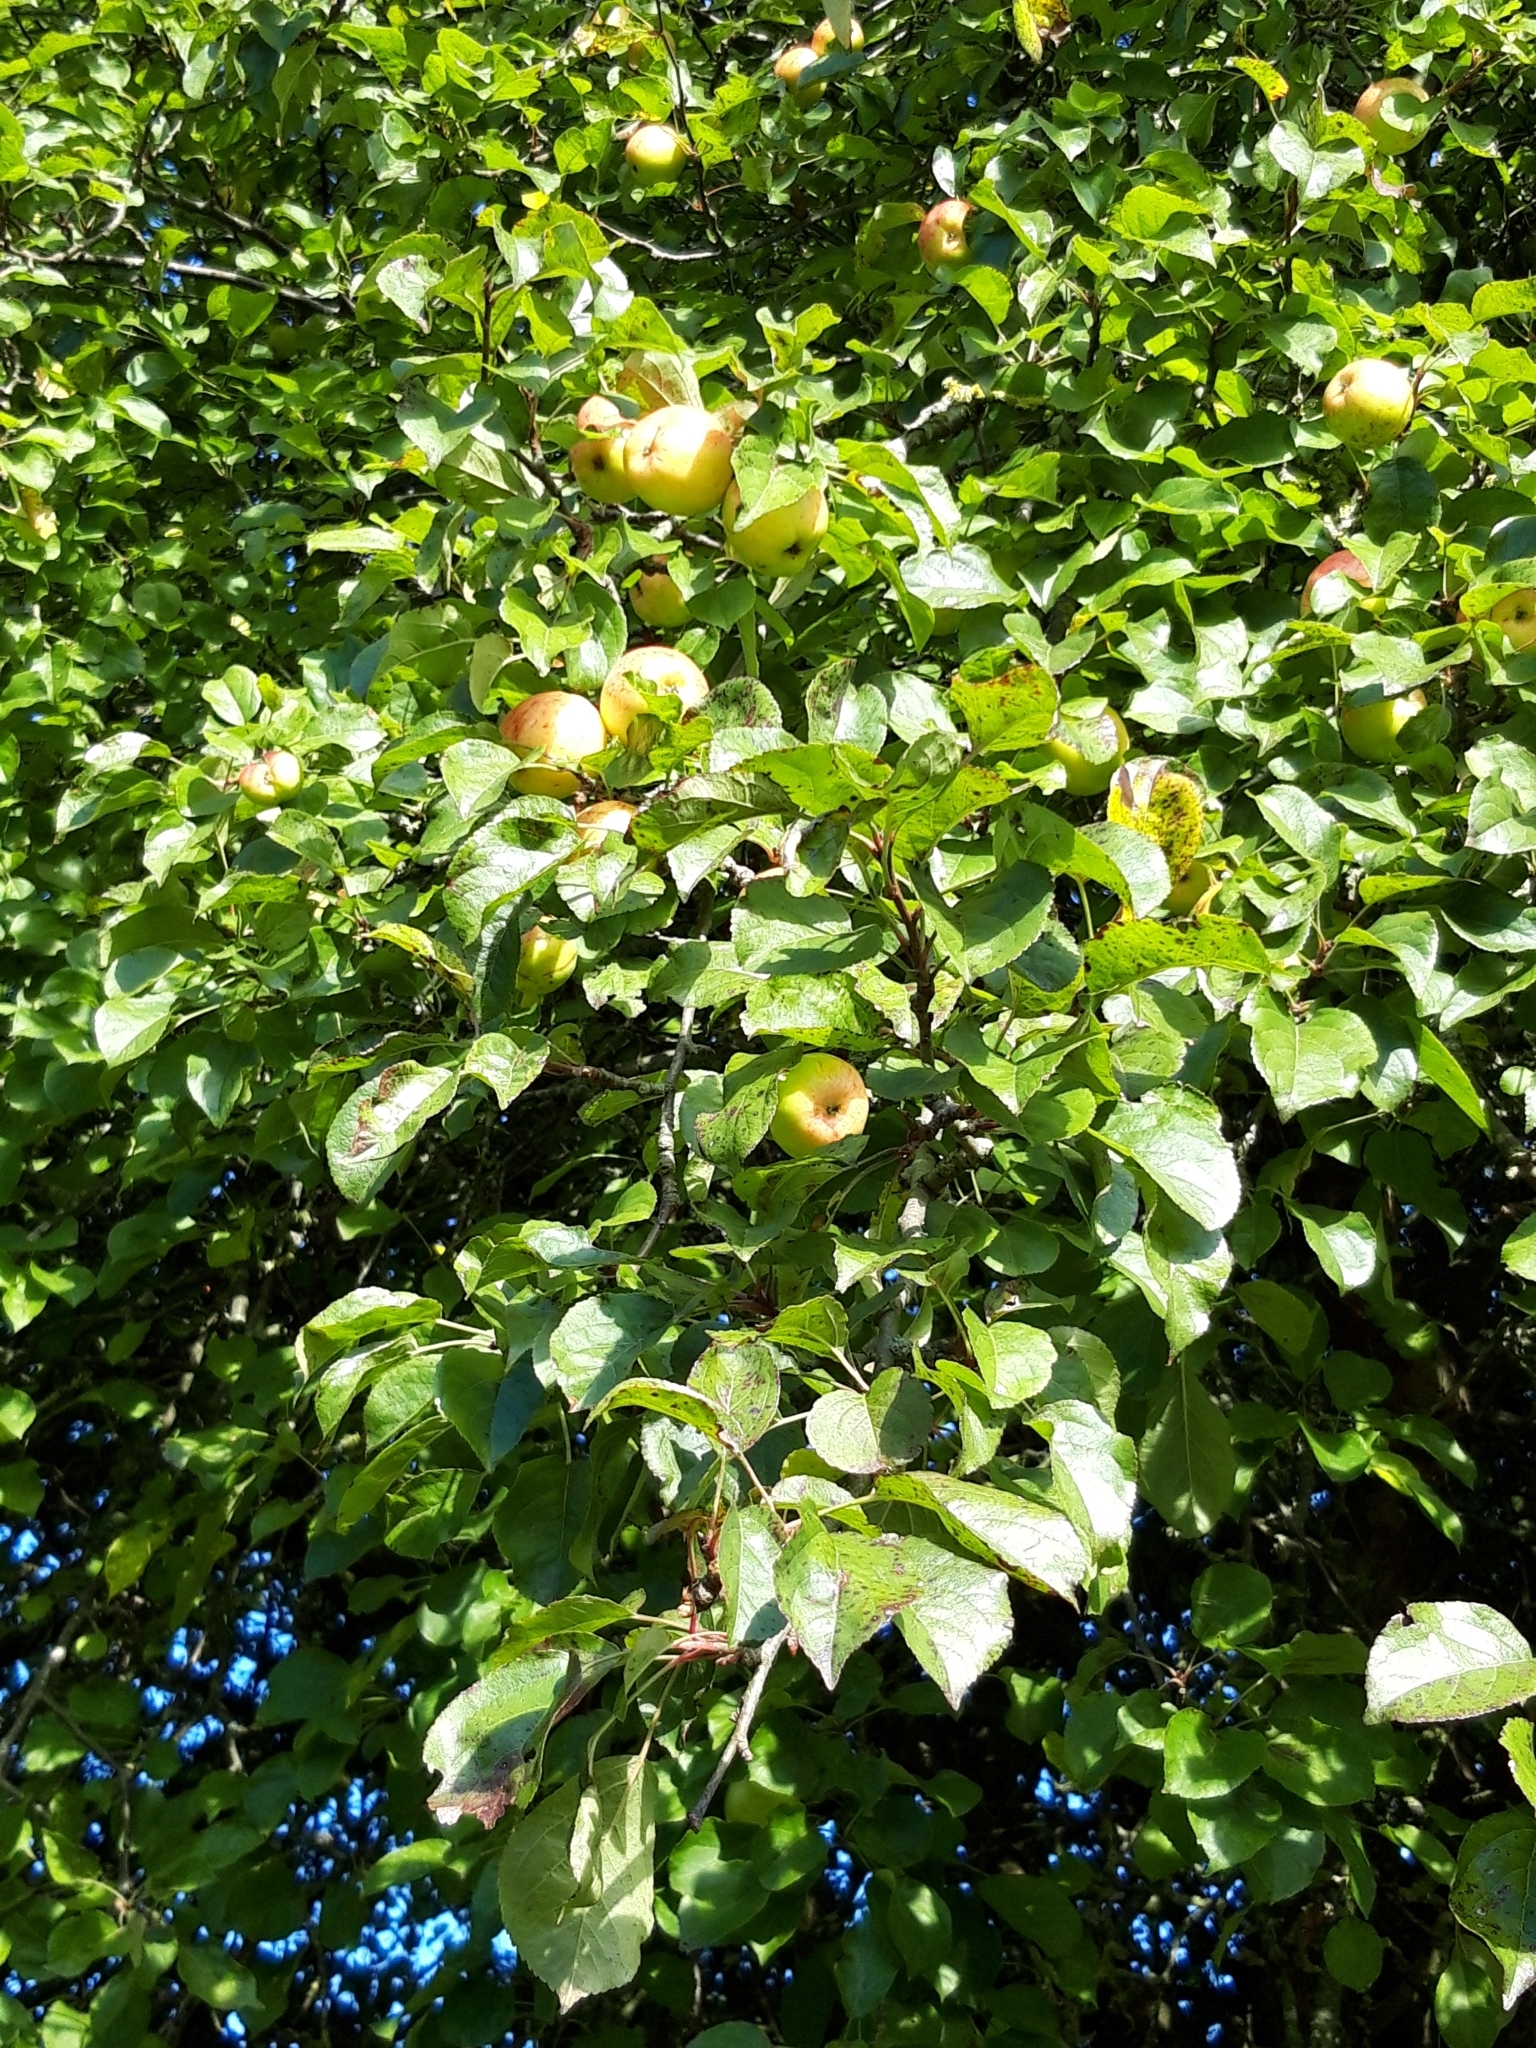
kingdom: Plantae
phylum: Tracheophyta
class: Magnoliopsida
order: Rosales
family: Rosaceae
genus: Malus
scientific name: Malus sylvestris
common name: Crab apple
